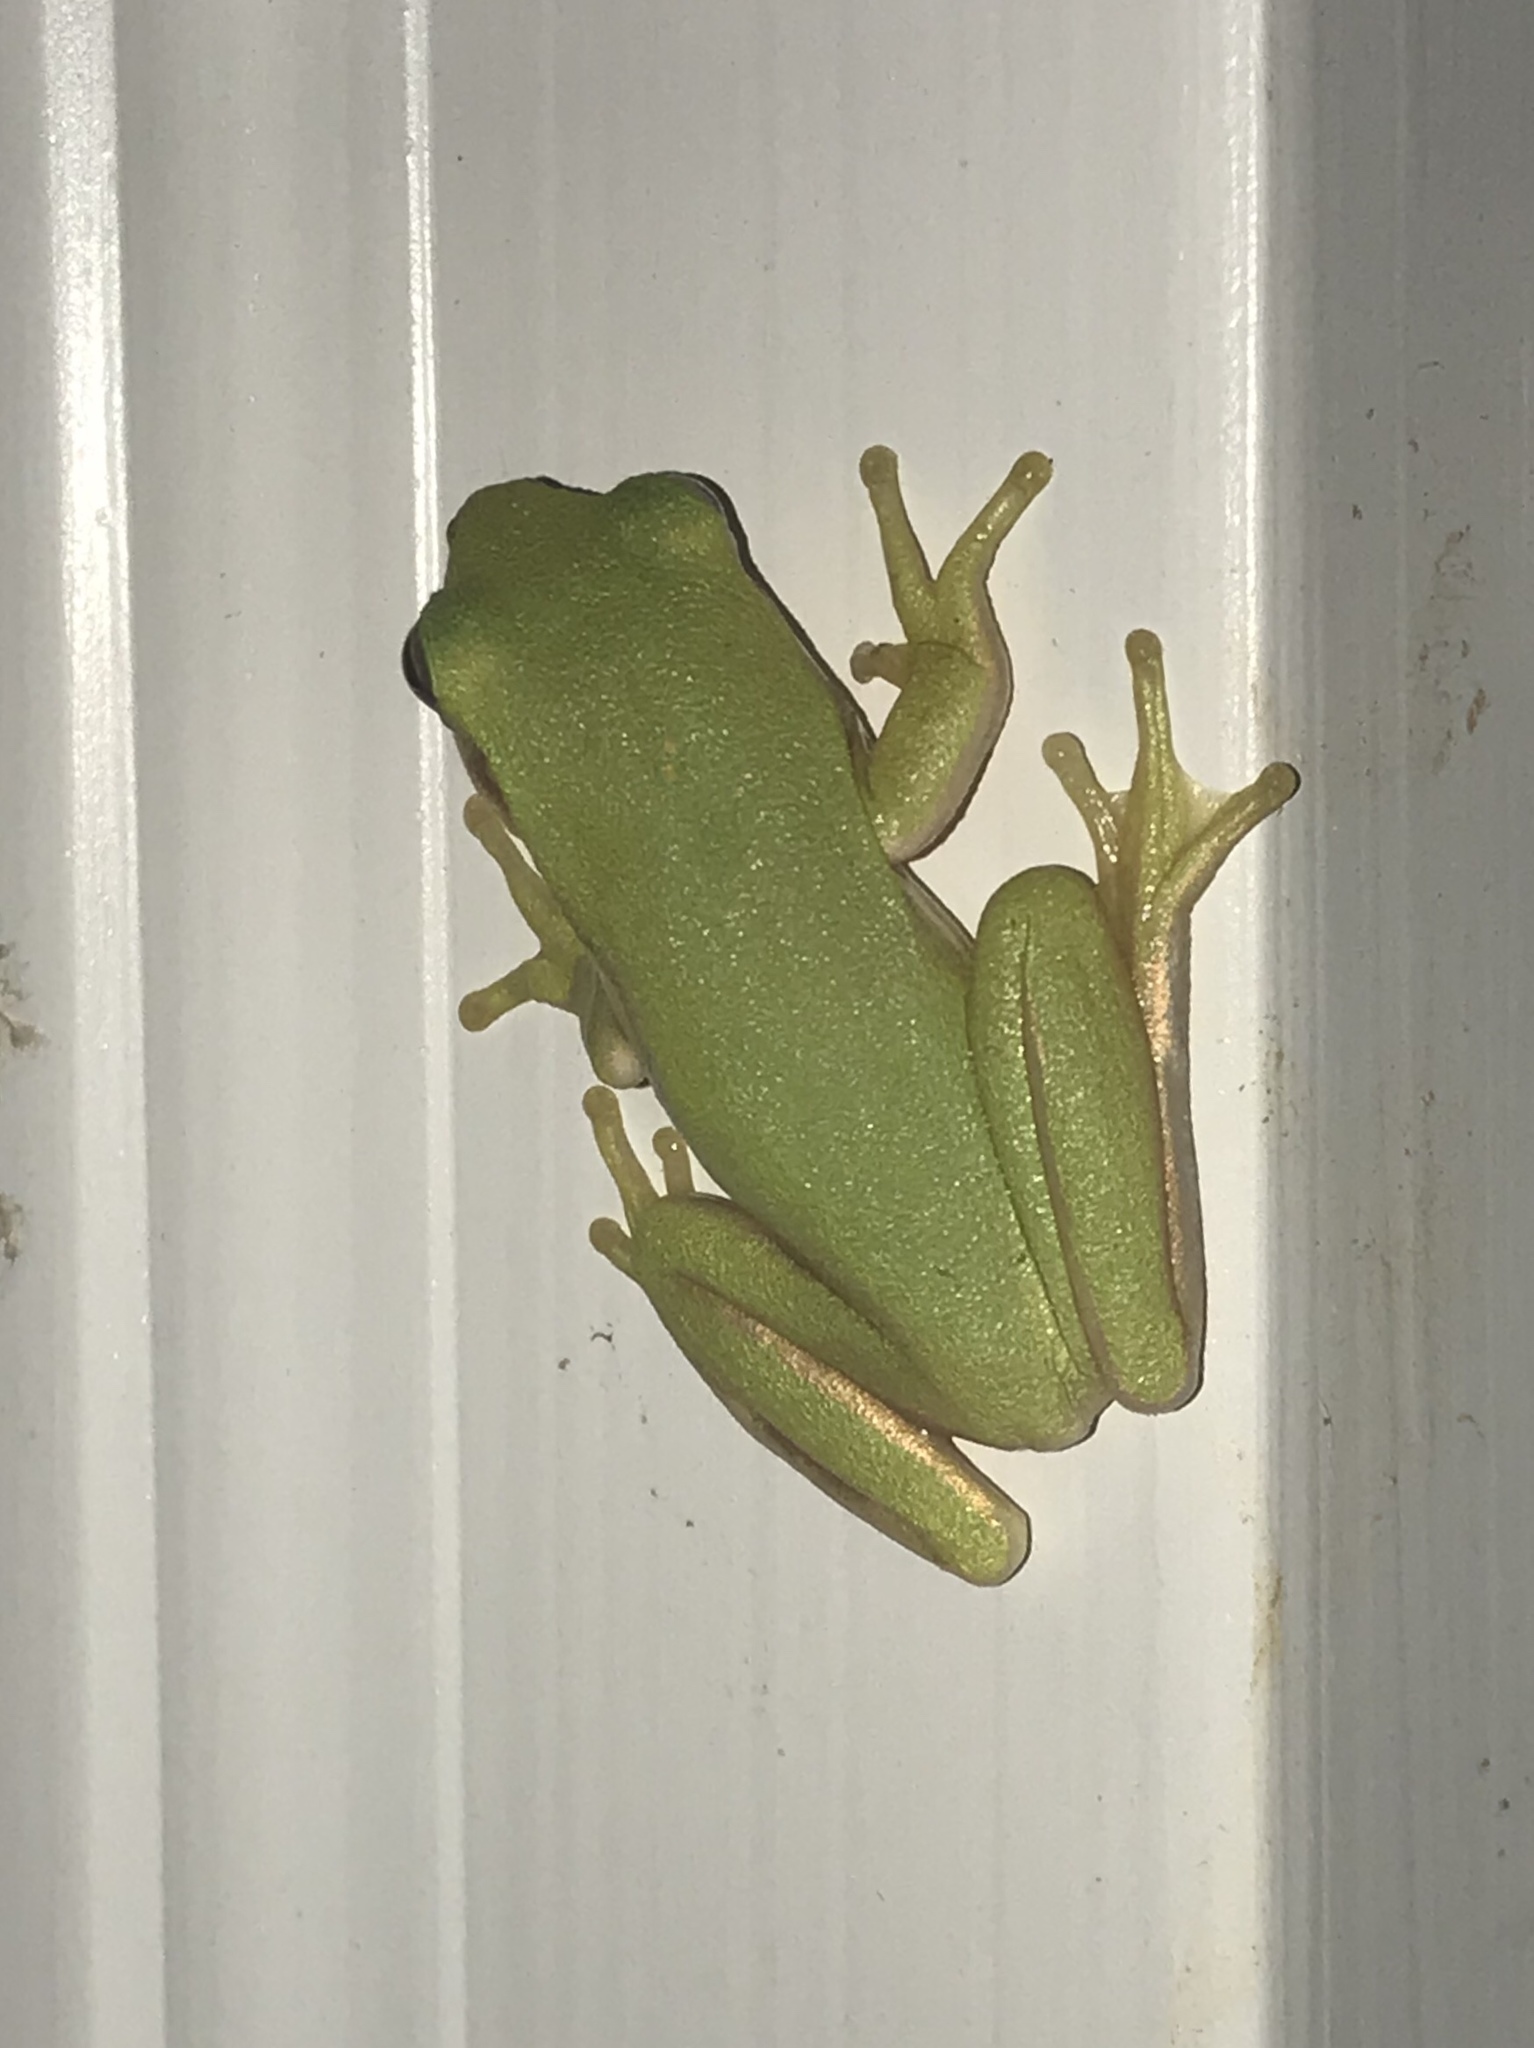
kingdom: Animalia
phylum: Chordata
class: Amphibia
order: Anura
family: Hylidae
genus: Dryophytes
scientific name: Dryophytes cinereus
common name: Green treefrog
